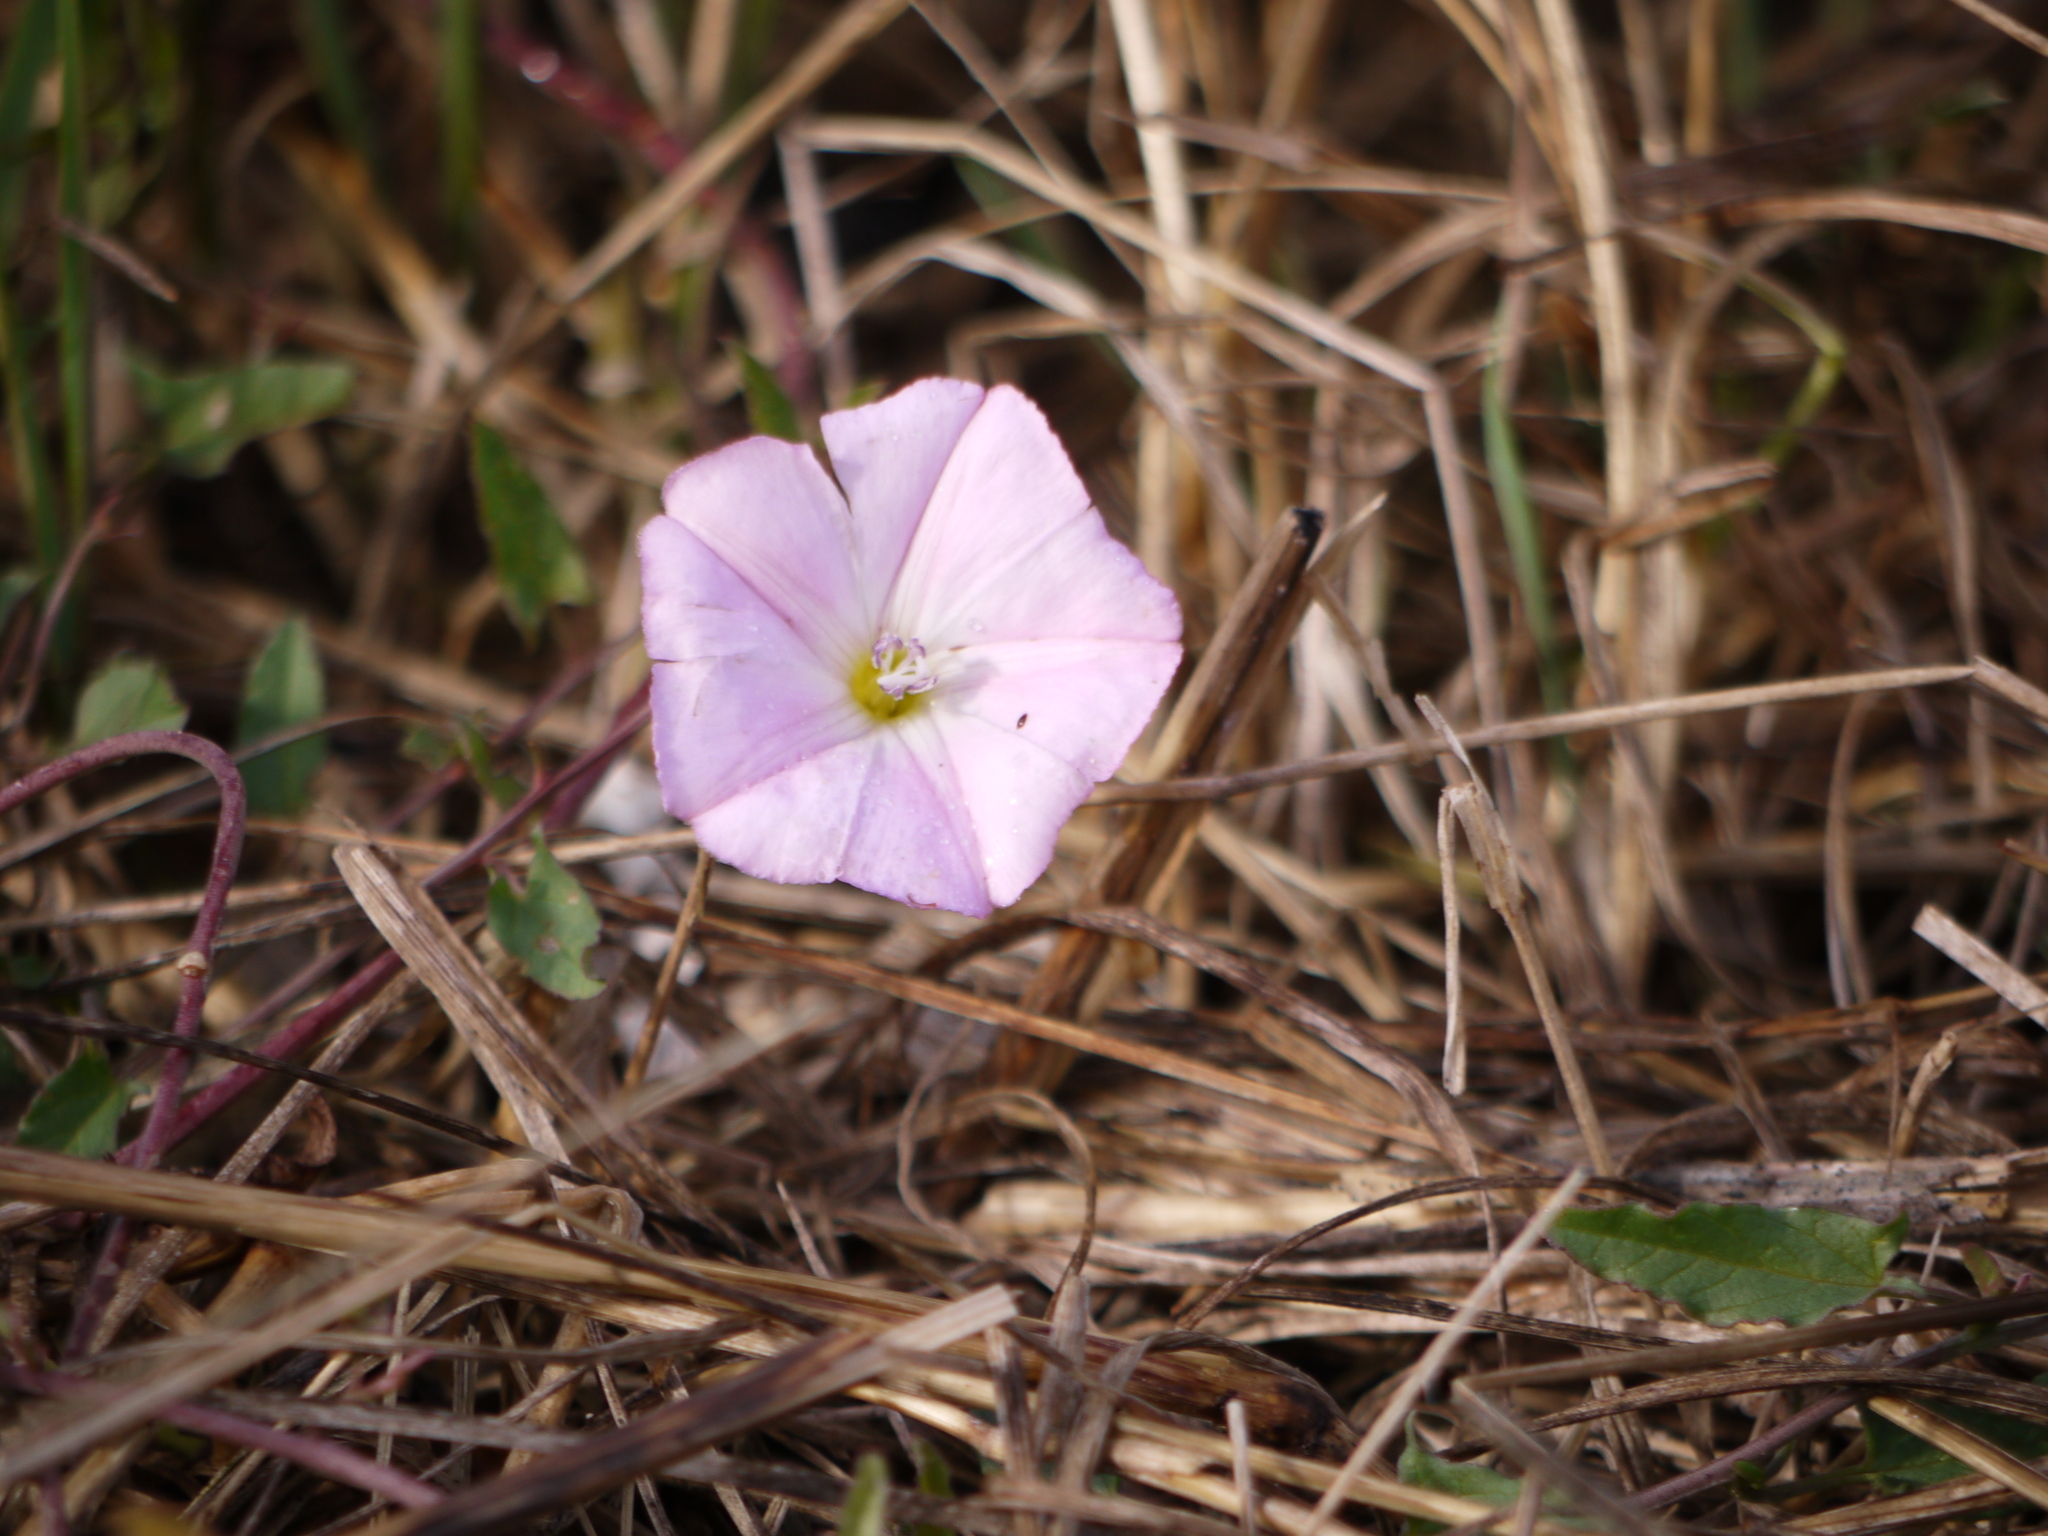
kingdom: Plantae
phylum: Tracheophyta
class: Magnoliopsida
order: Solanales
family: Convolvulaceae
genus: Convolvulus
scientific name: Convolvulus arvensis
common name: Field bindweed
